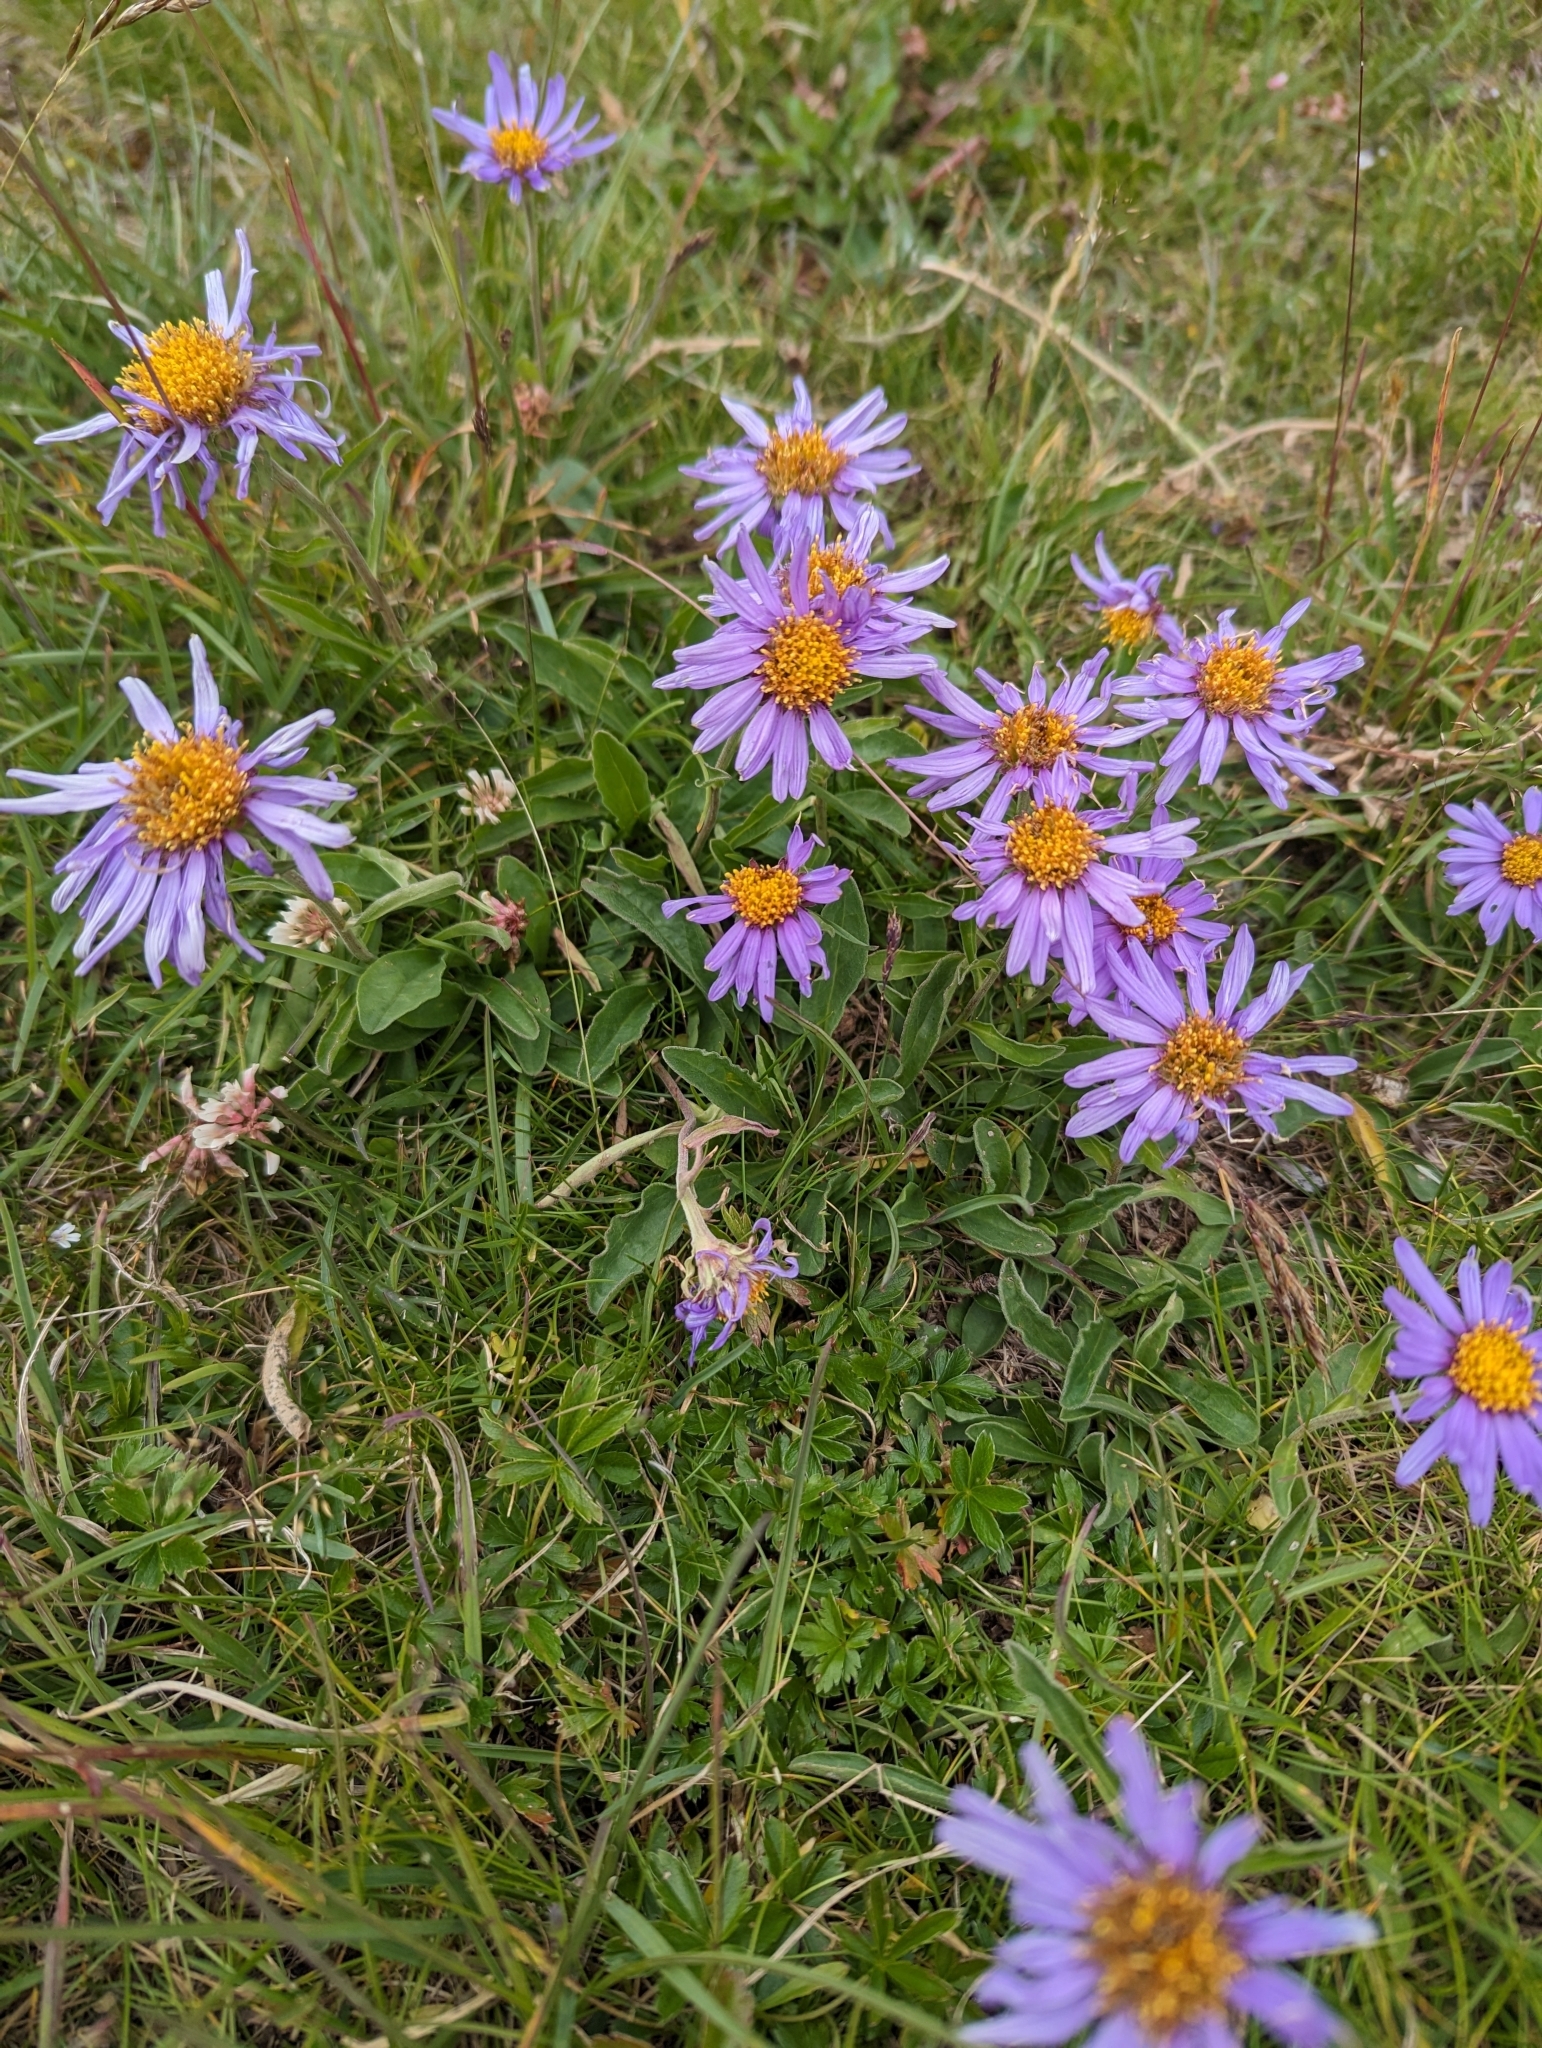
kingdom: Plantae
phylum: Tracheophyta
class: Magnoliopsida
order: Asterales
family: Asteraceae
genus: Aster
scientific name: Aster alpinus
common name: Alpine aster
